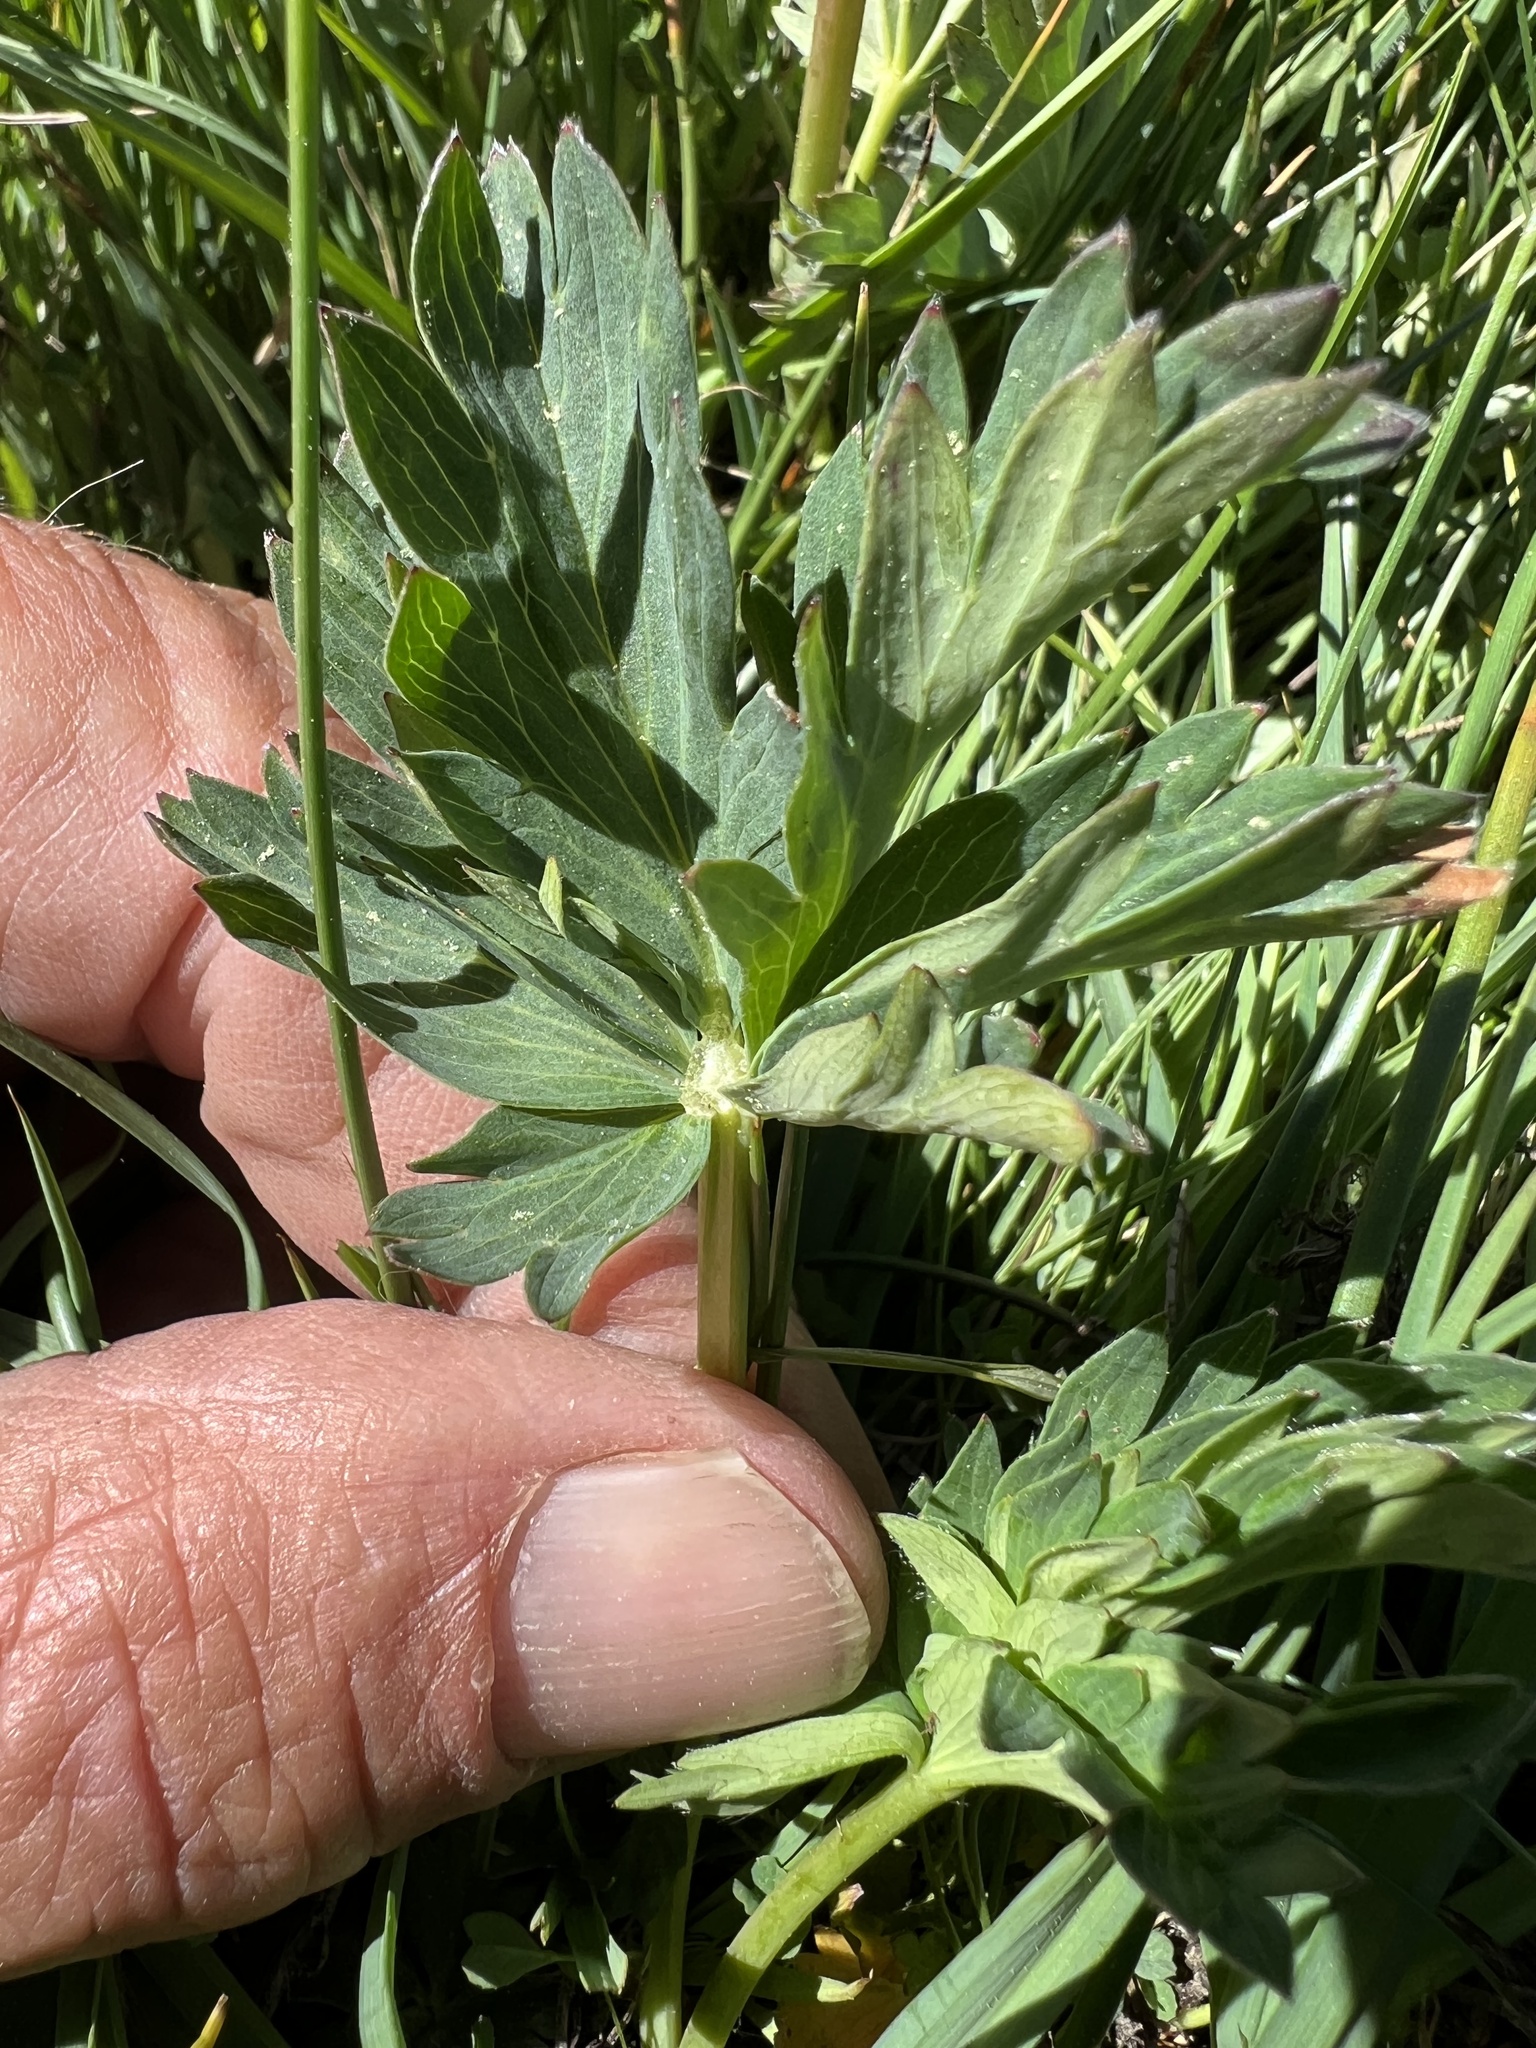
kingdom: Plantae
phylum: Tracheophyta
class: Magnoliopsida
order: Rosales
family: Rosaceae
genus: Potentilla
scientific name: Potentilla glaucophylla
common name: Blue-leaved cinquefoil
